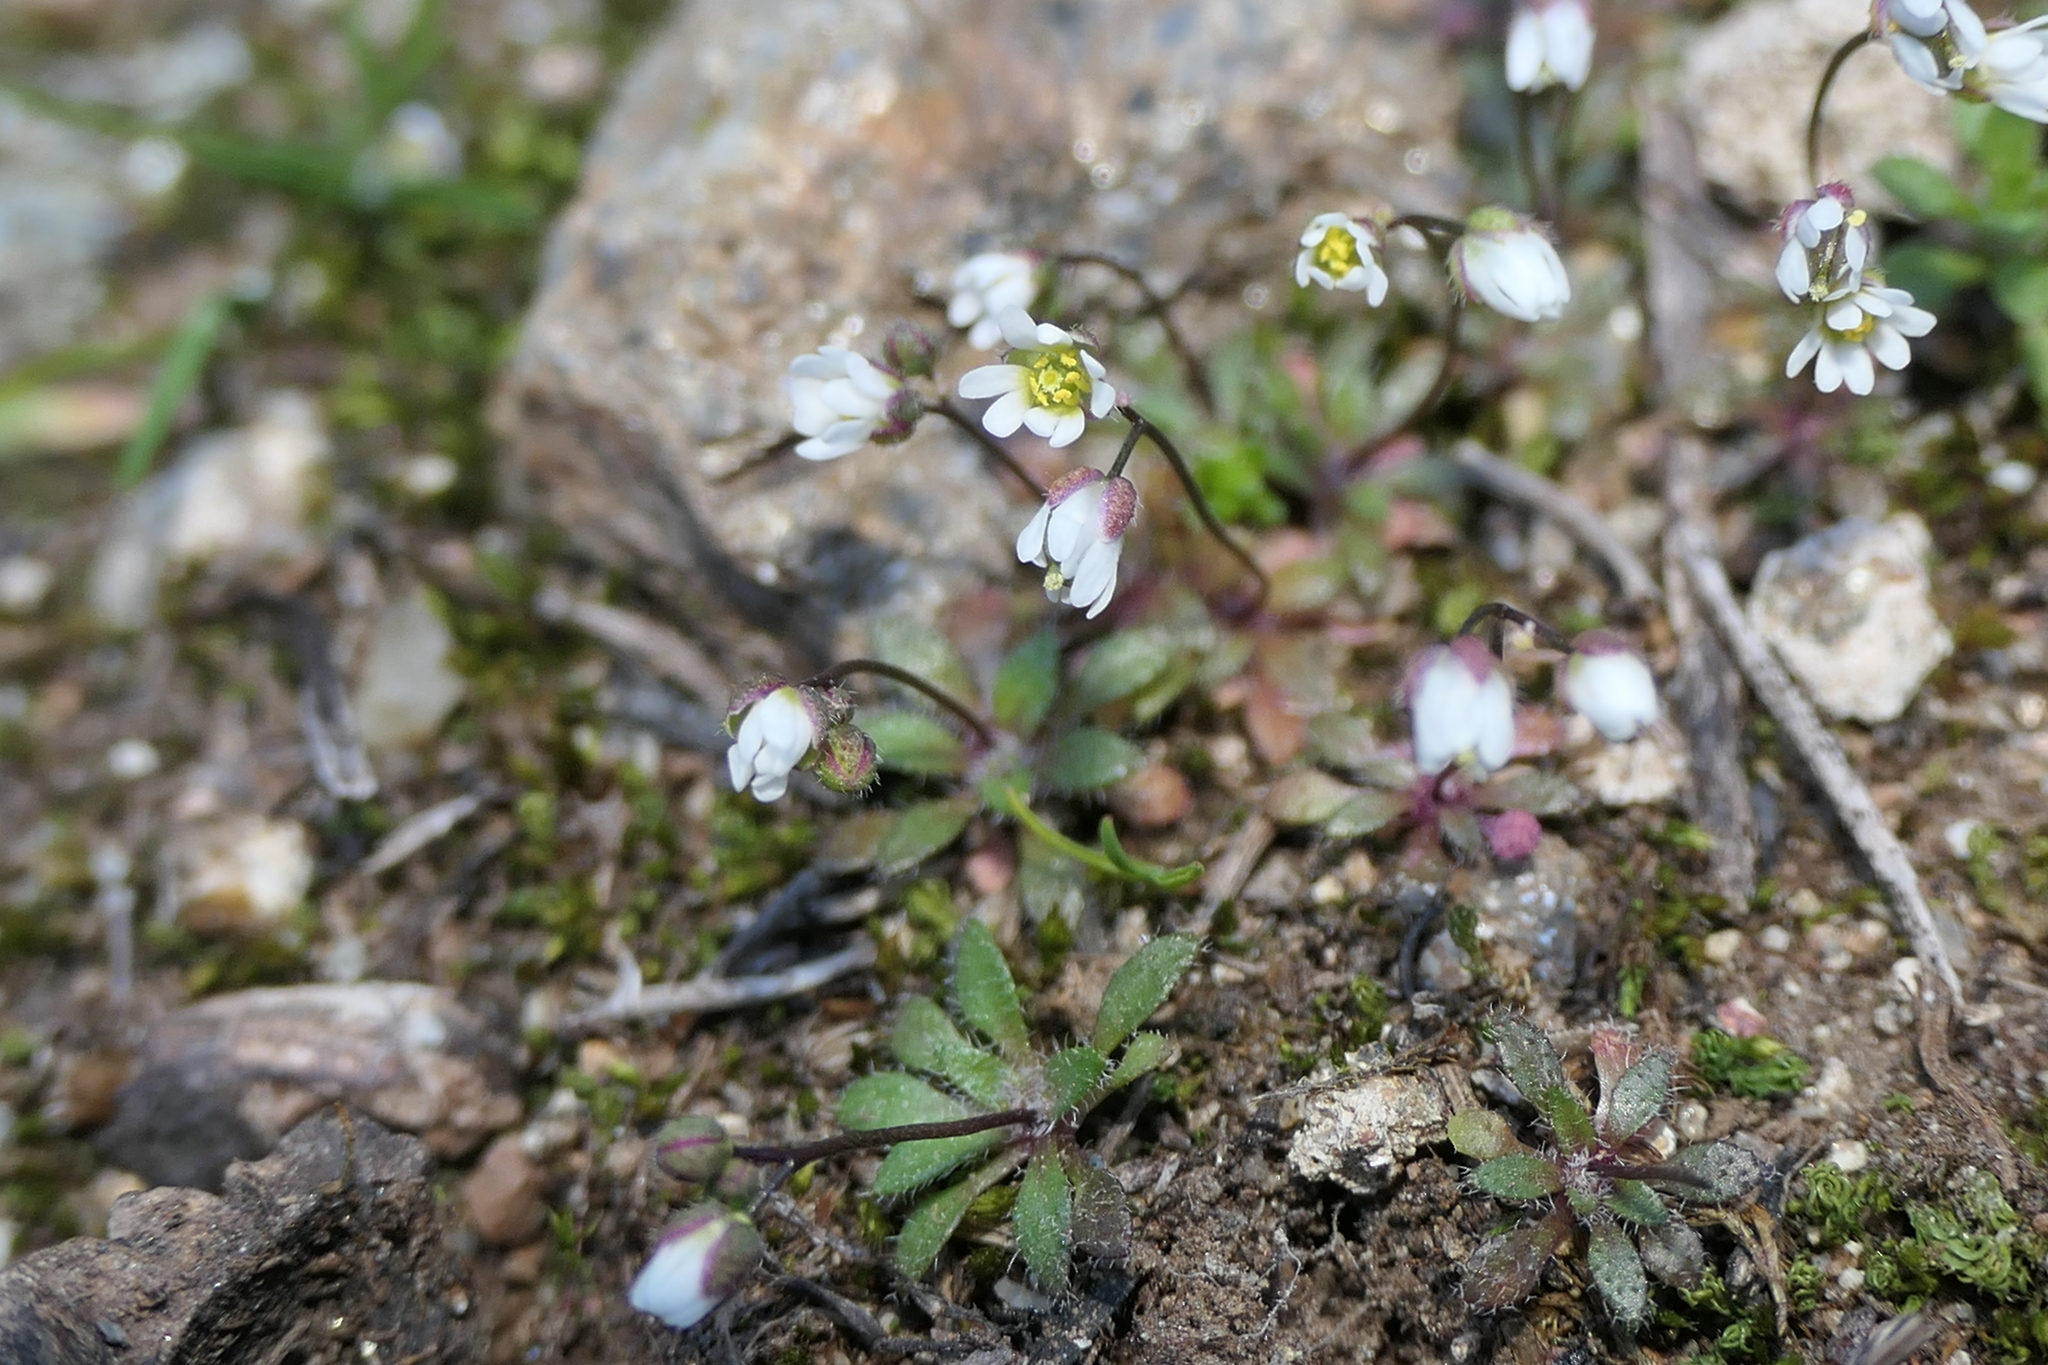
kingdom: Plantae
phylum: Tracheophyta
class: Magnoliopsida
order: Brassicales
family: Brassicaceae
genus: Draba
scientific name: Draba verna
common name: Spring draba
